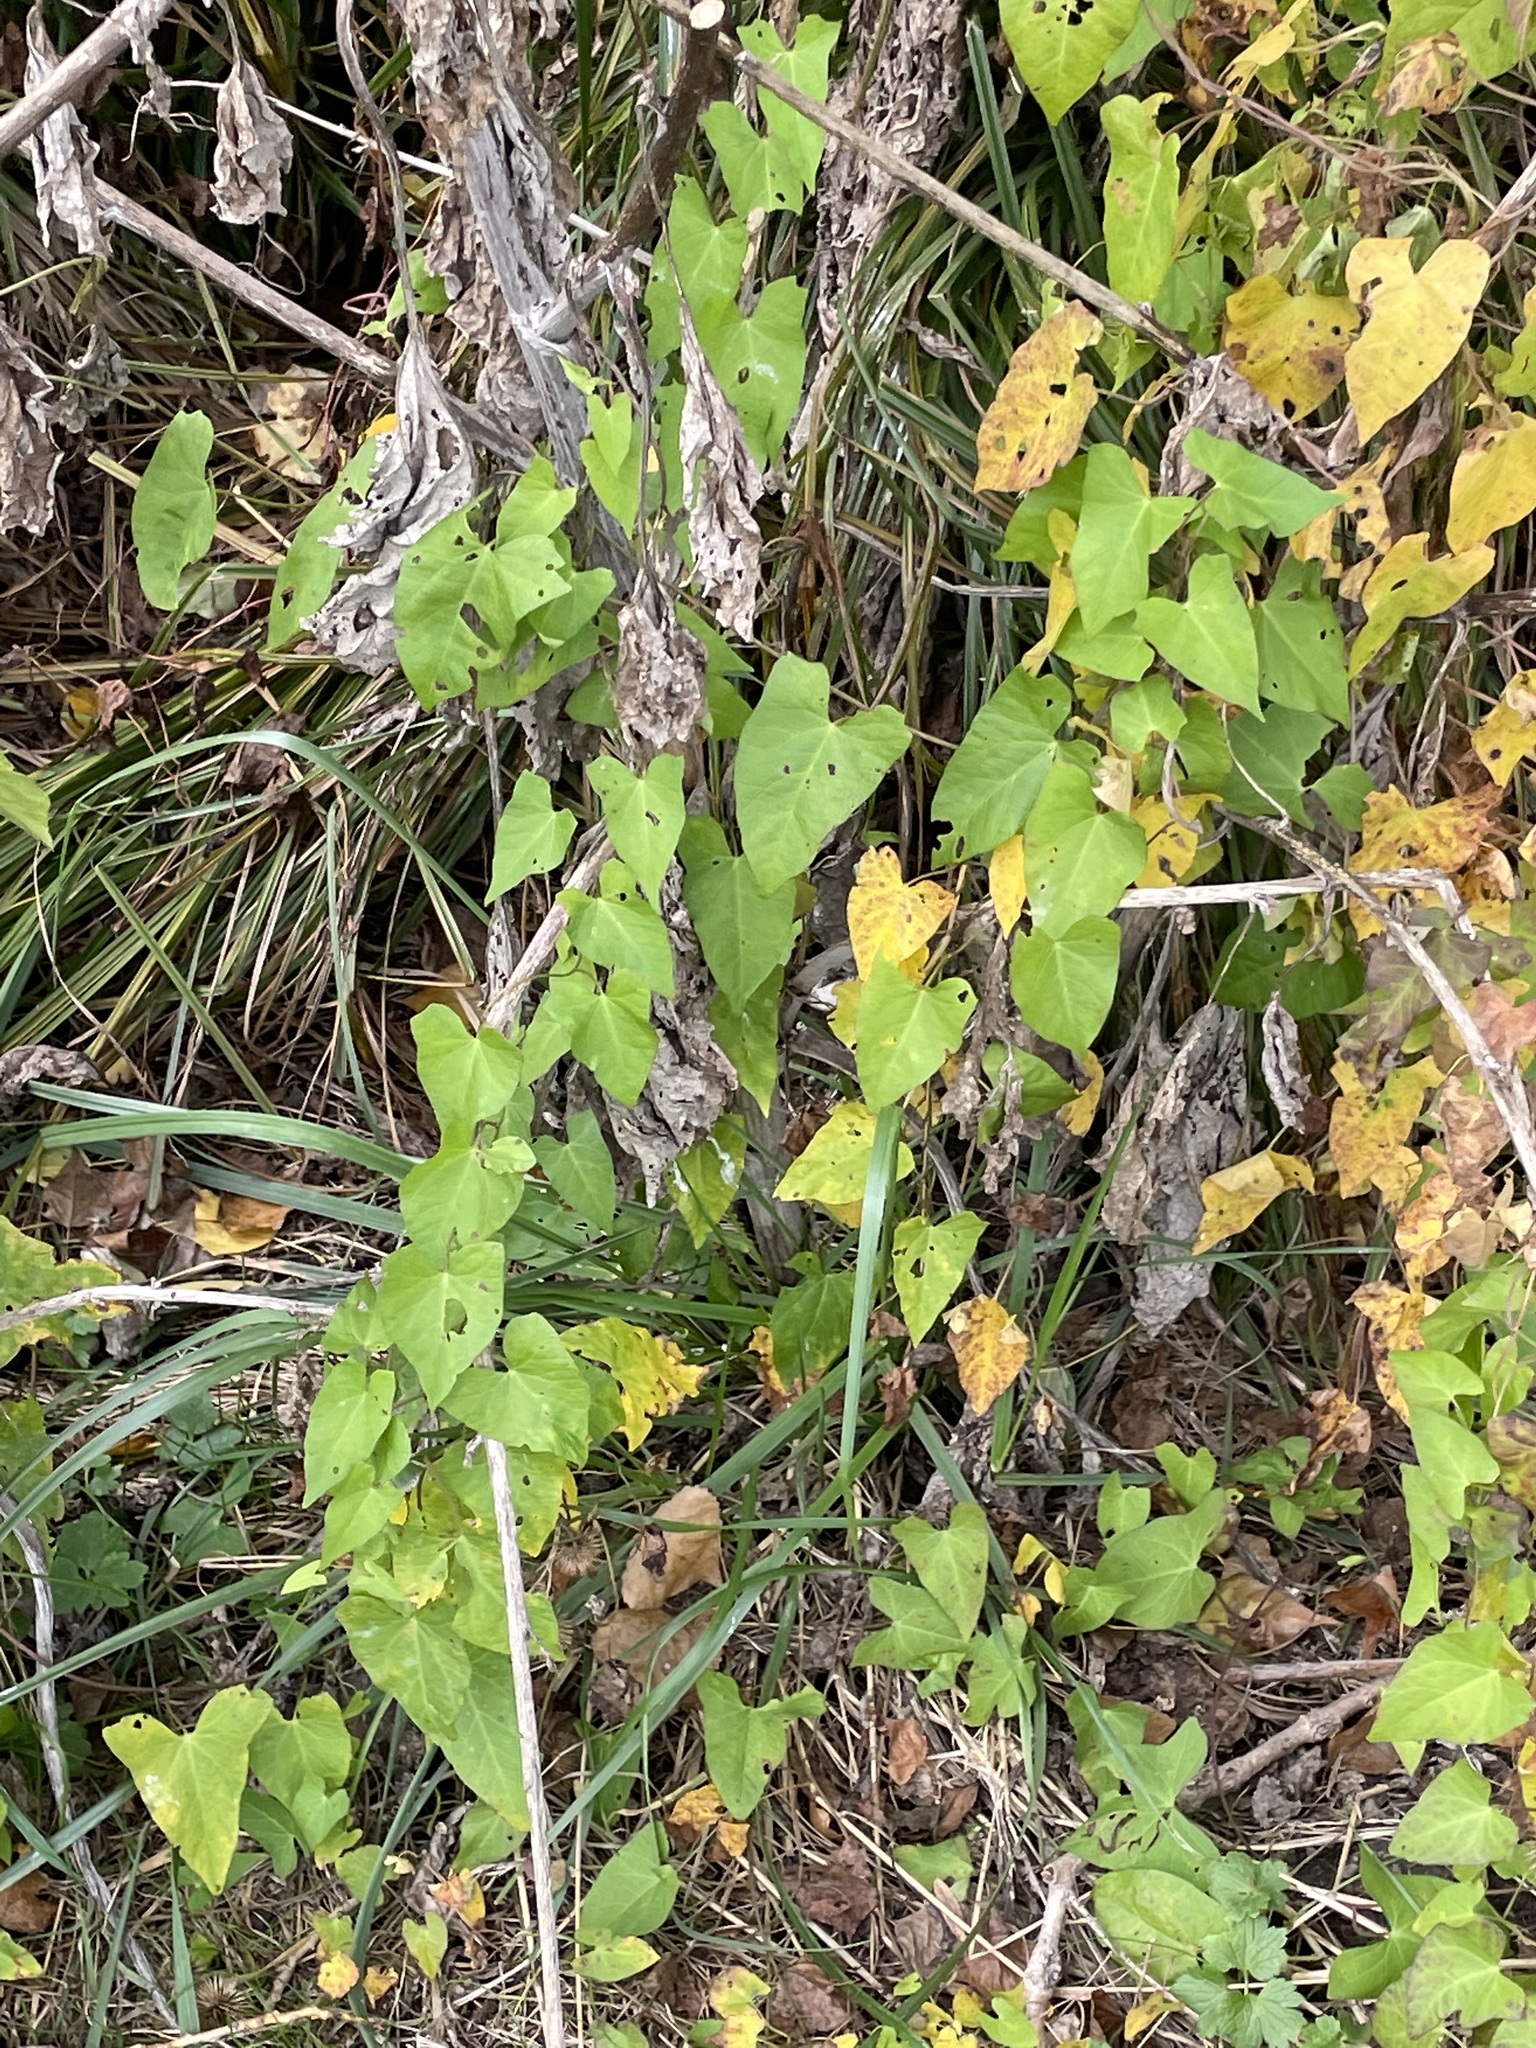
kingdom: Plantae
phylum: Tracheophyta
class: Magnoliopsida
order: Solanales
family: Convolvulaceae
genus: Calystegia
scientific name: Calystegia sepium
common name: Hedge bindweed
